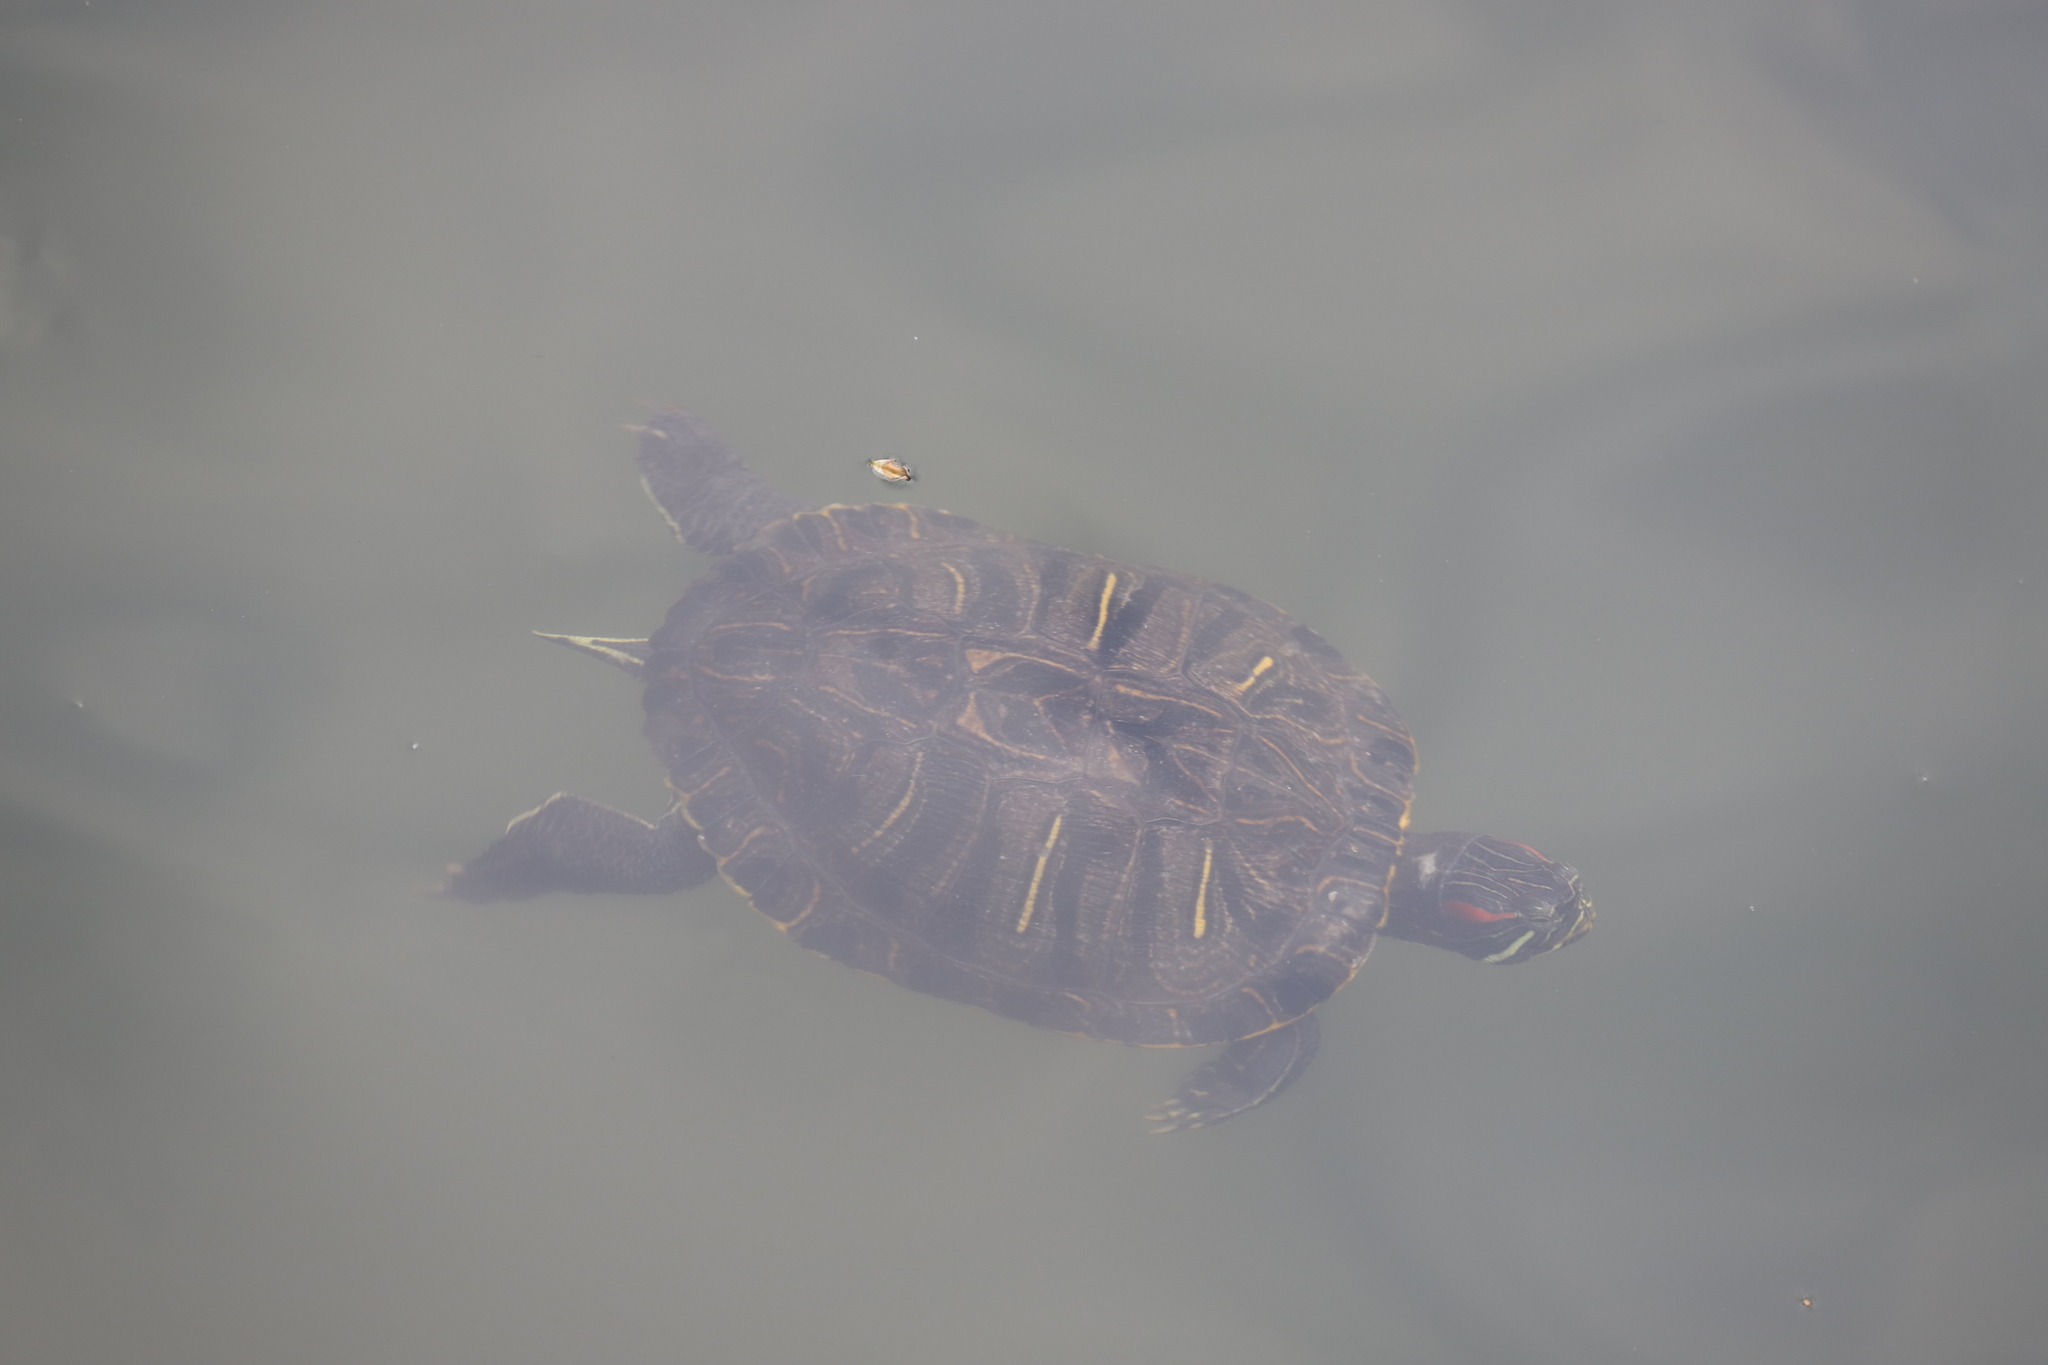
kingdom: Animalia
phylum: Chordata
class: Testudines
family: Emydidae
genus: Trachemys
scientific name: Trachemys scripta
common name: Slider
